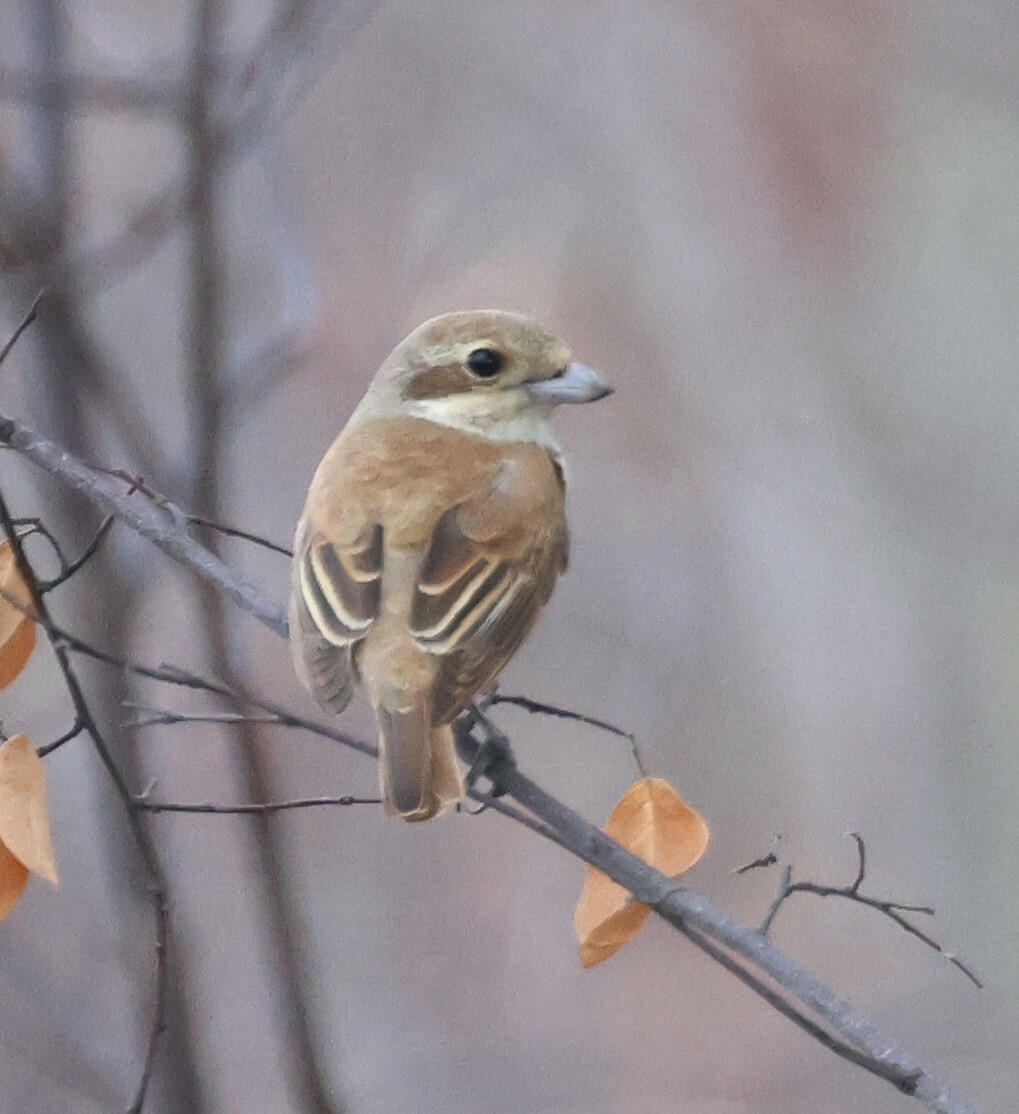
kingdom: Animalia
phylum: Chordata
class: Aves
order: Passeriformes
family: Laniidae
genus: Lanius
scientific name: Lanius collurio
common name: Red-backed shrike
